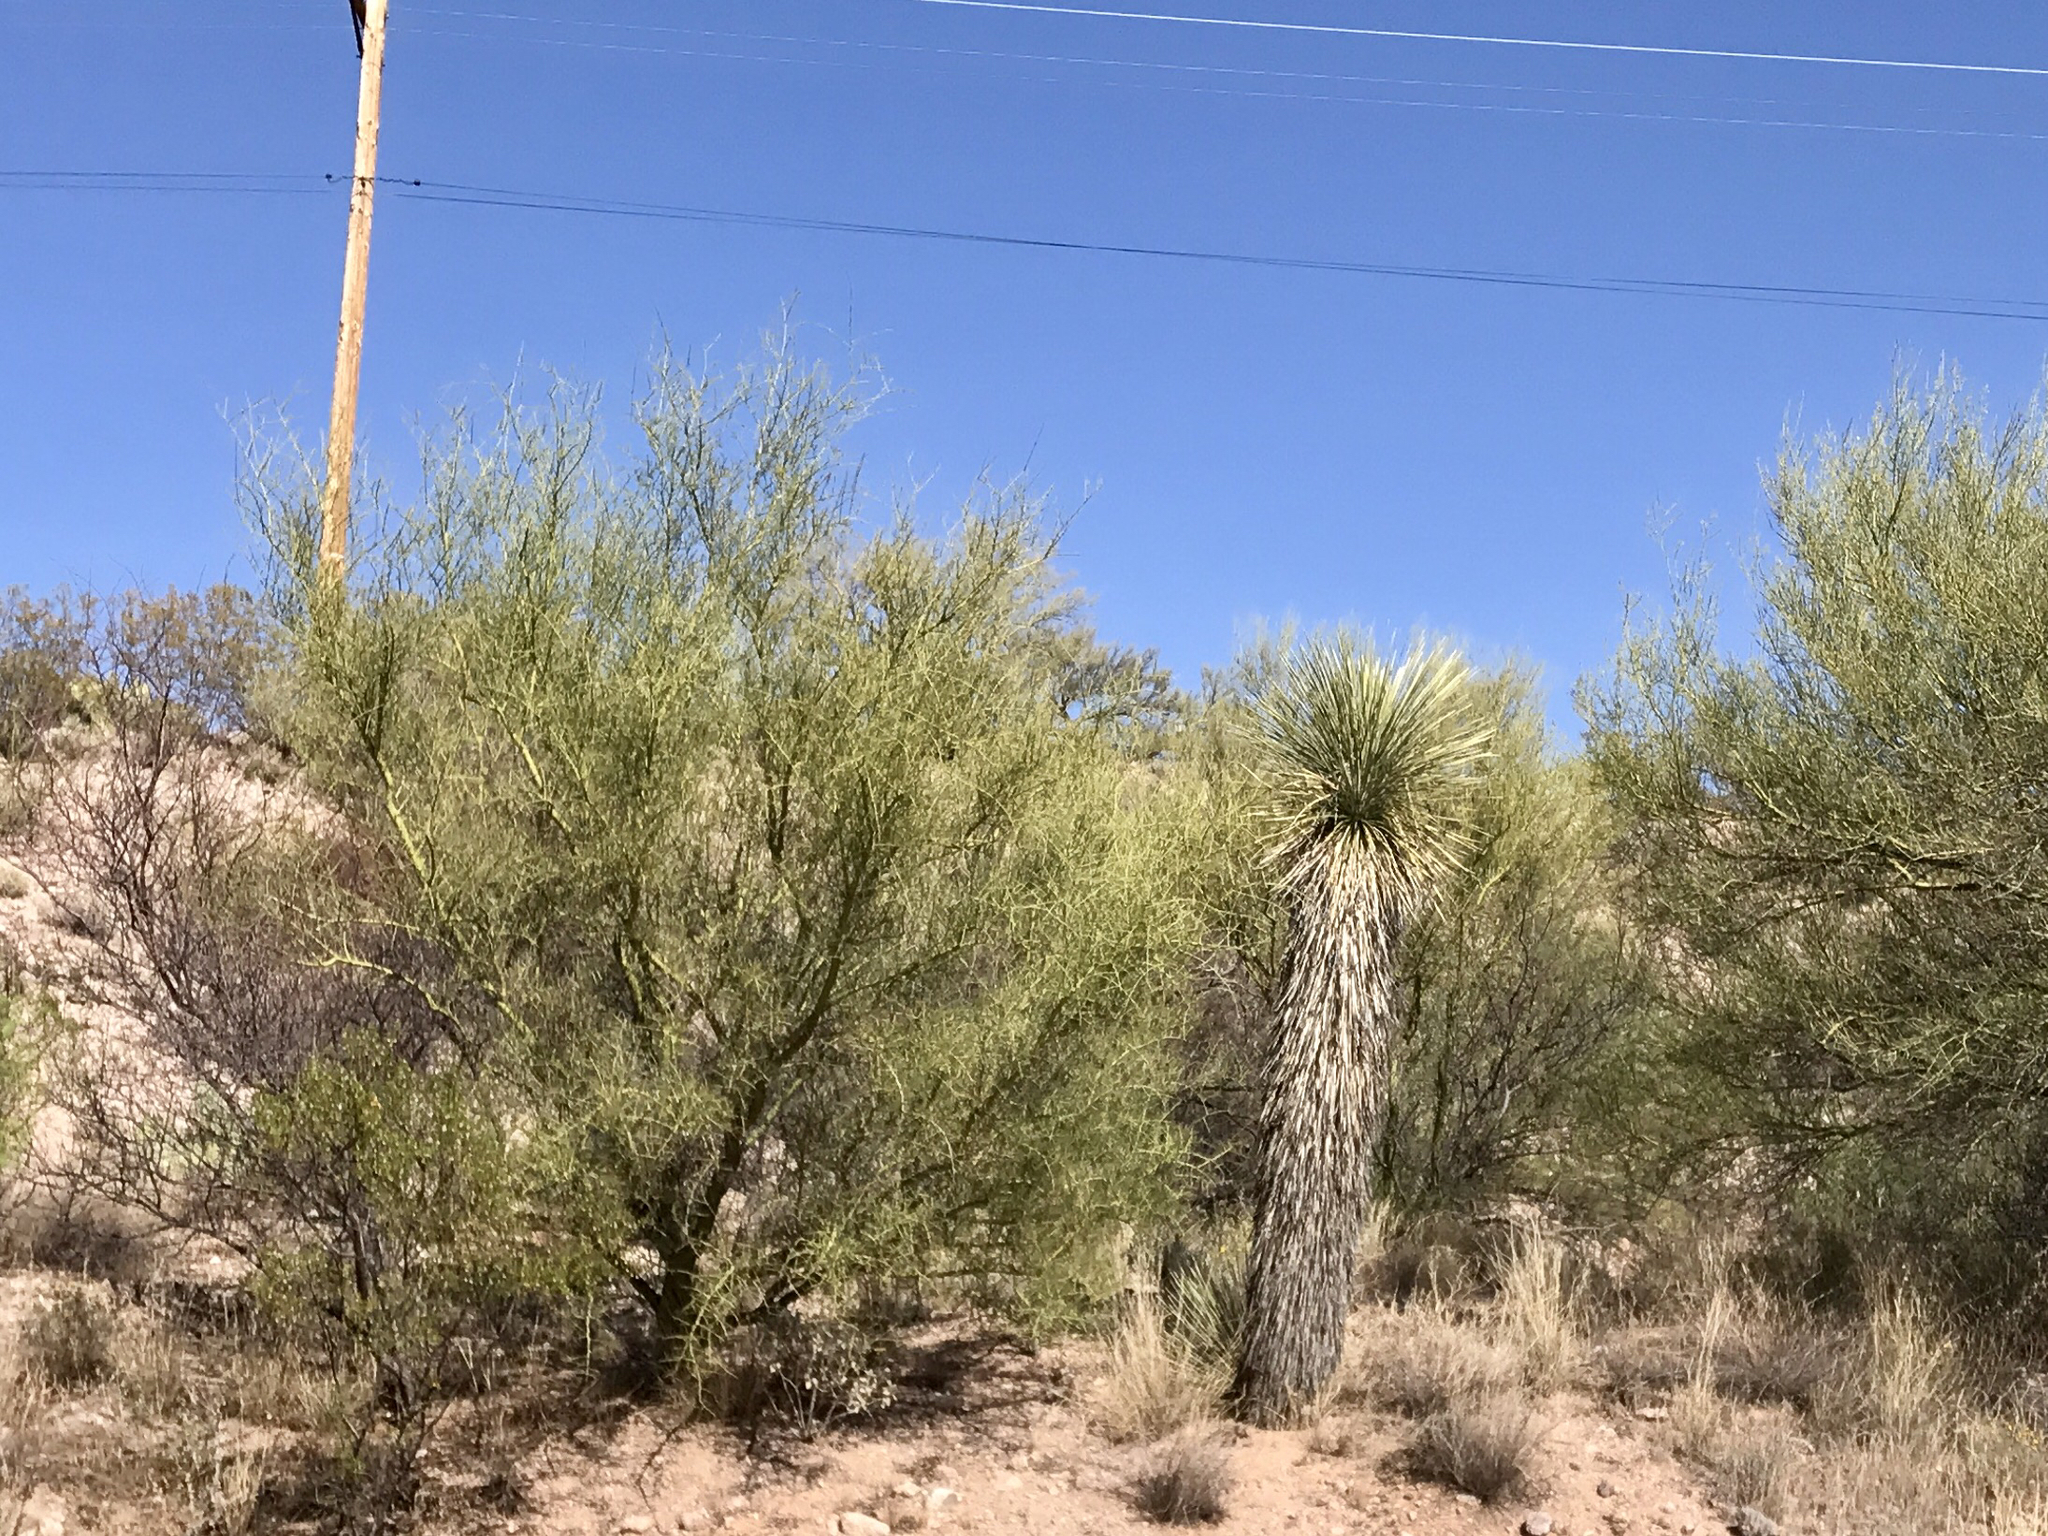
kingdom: Plantae
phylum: Tracheophyta
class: Liliopsida
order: Asparagales
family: Asparagaceae
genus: Yucca
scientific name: Yucca elata
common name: Palmella
